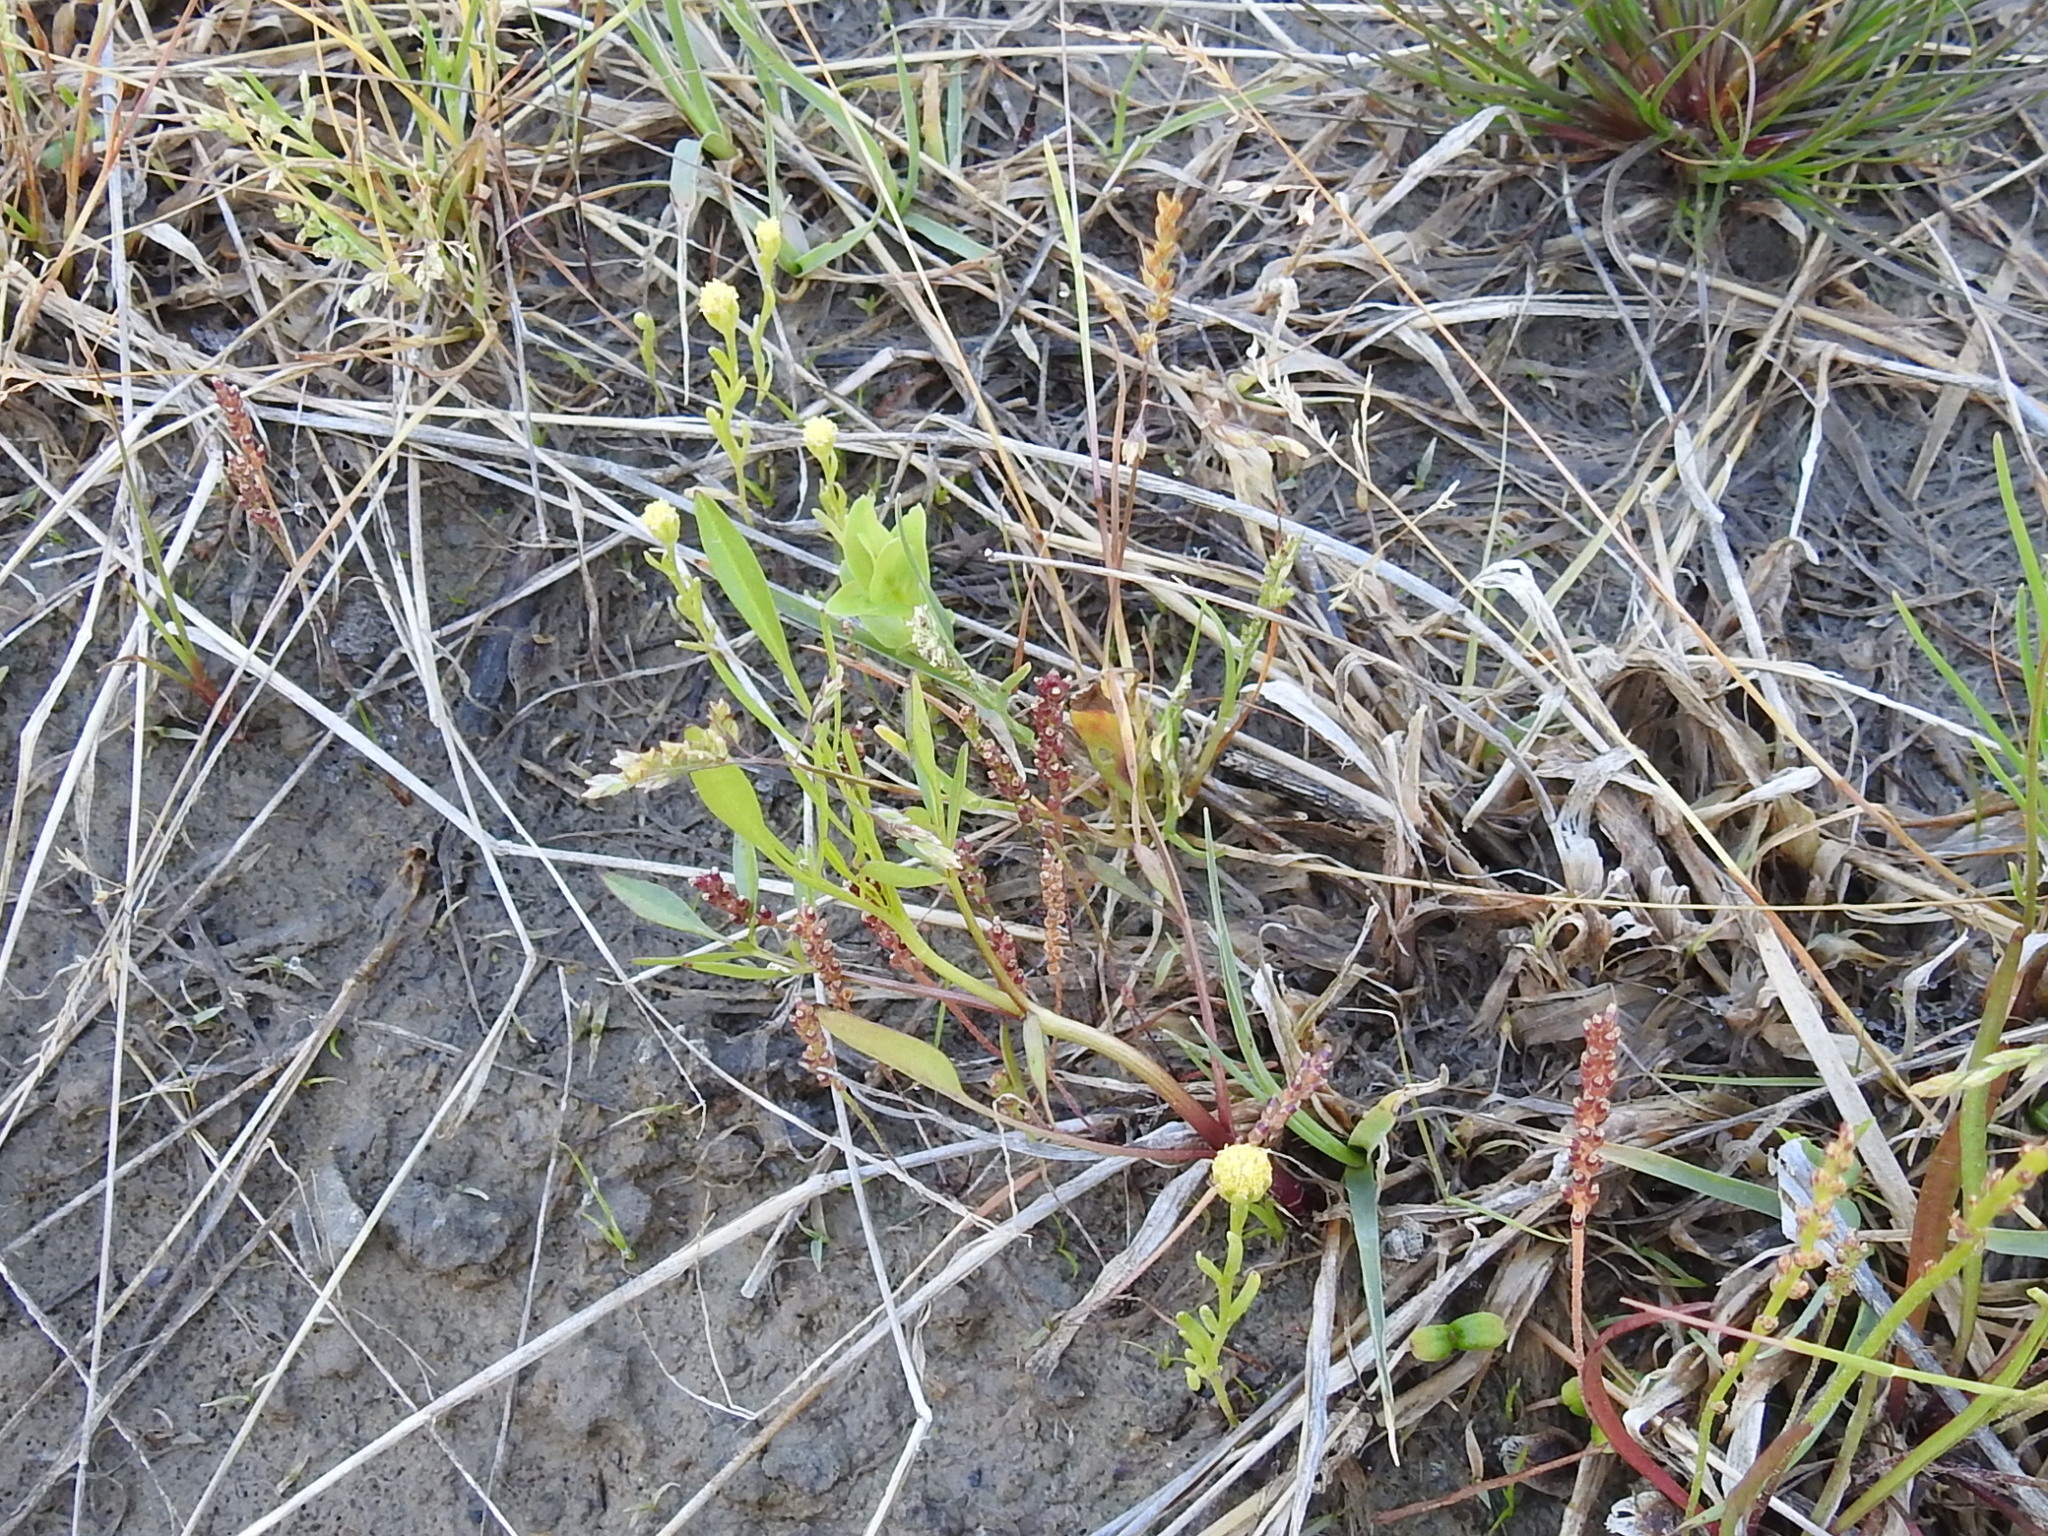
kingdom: Plantae
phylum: Tracheophyta
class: Magnoliopsida
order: Asterales
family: Asteraceae
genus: Hymenoxys
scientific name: Hymenoxys perpygmaea
